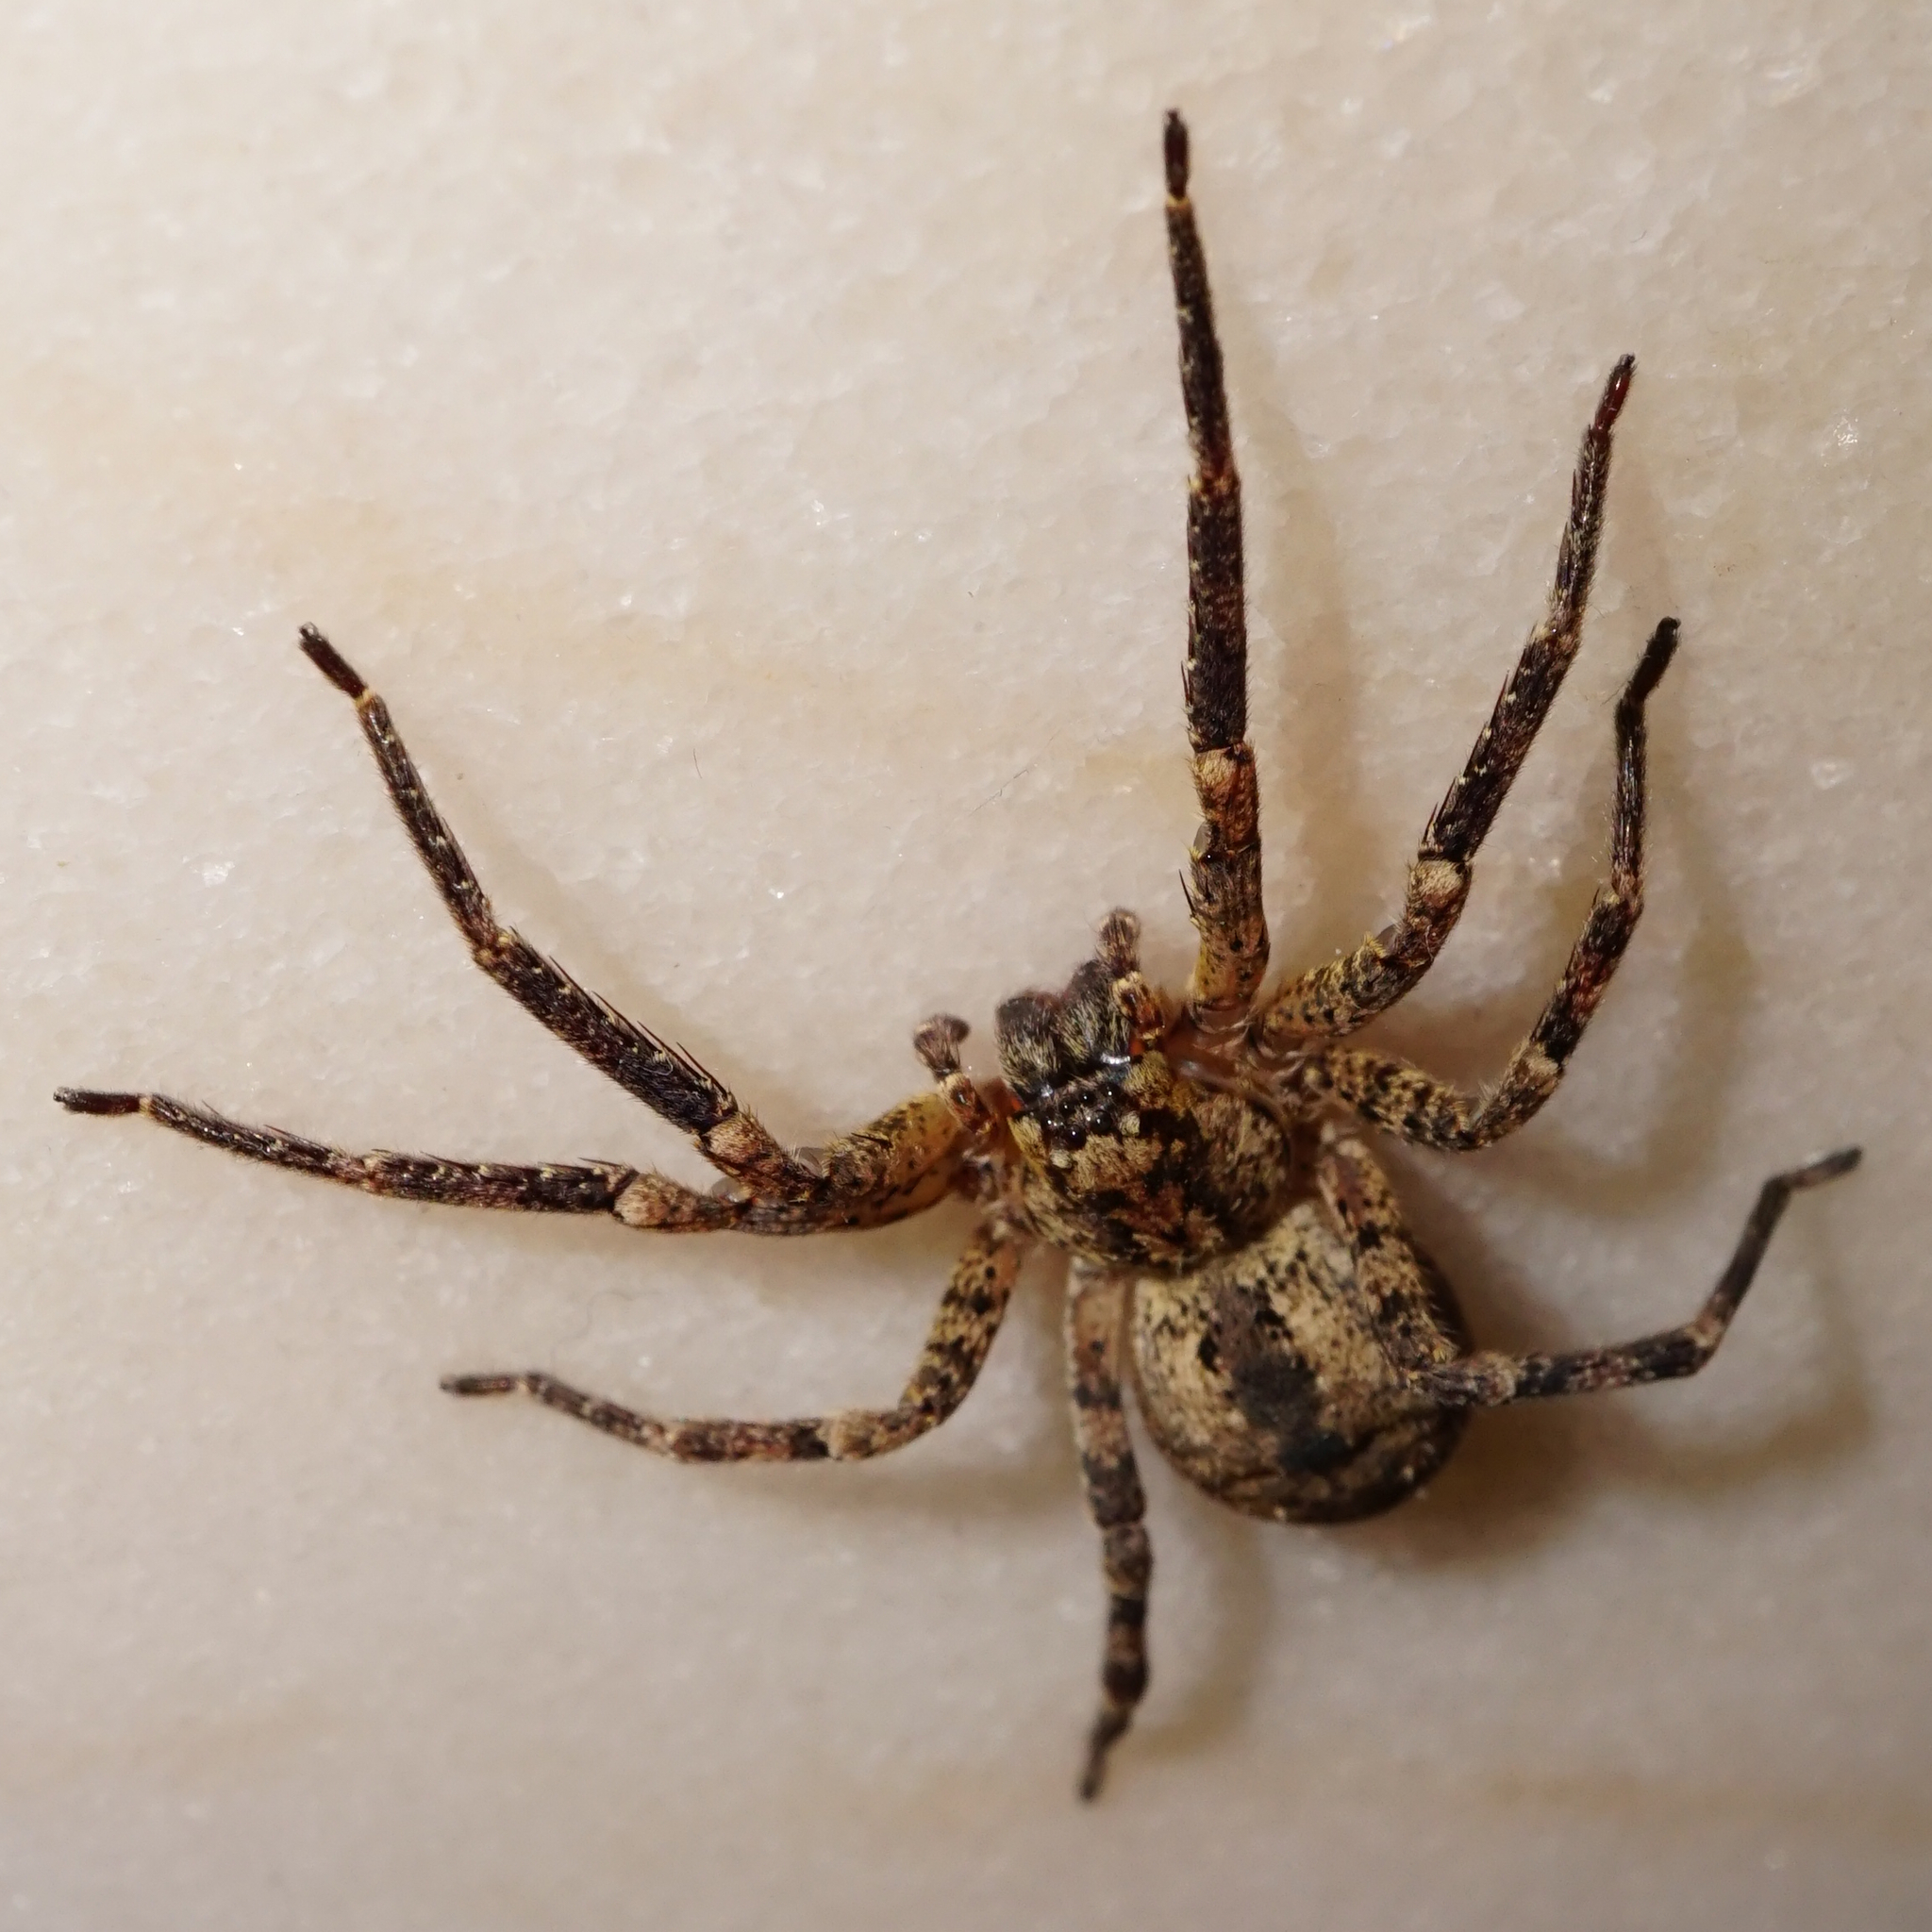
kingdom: Animalia
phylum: Arthropoda
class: Arachnida
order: Araneae
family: Zoropsidae
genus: Zoropsis
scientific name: Zoropsis spinimana
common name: Zoropsid spider
